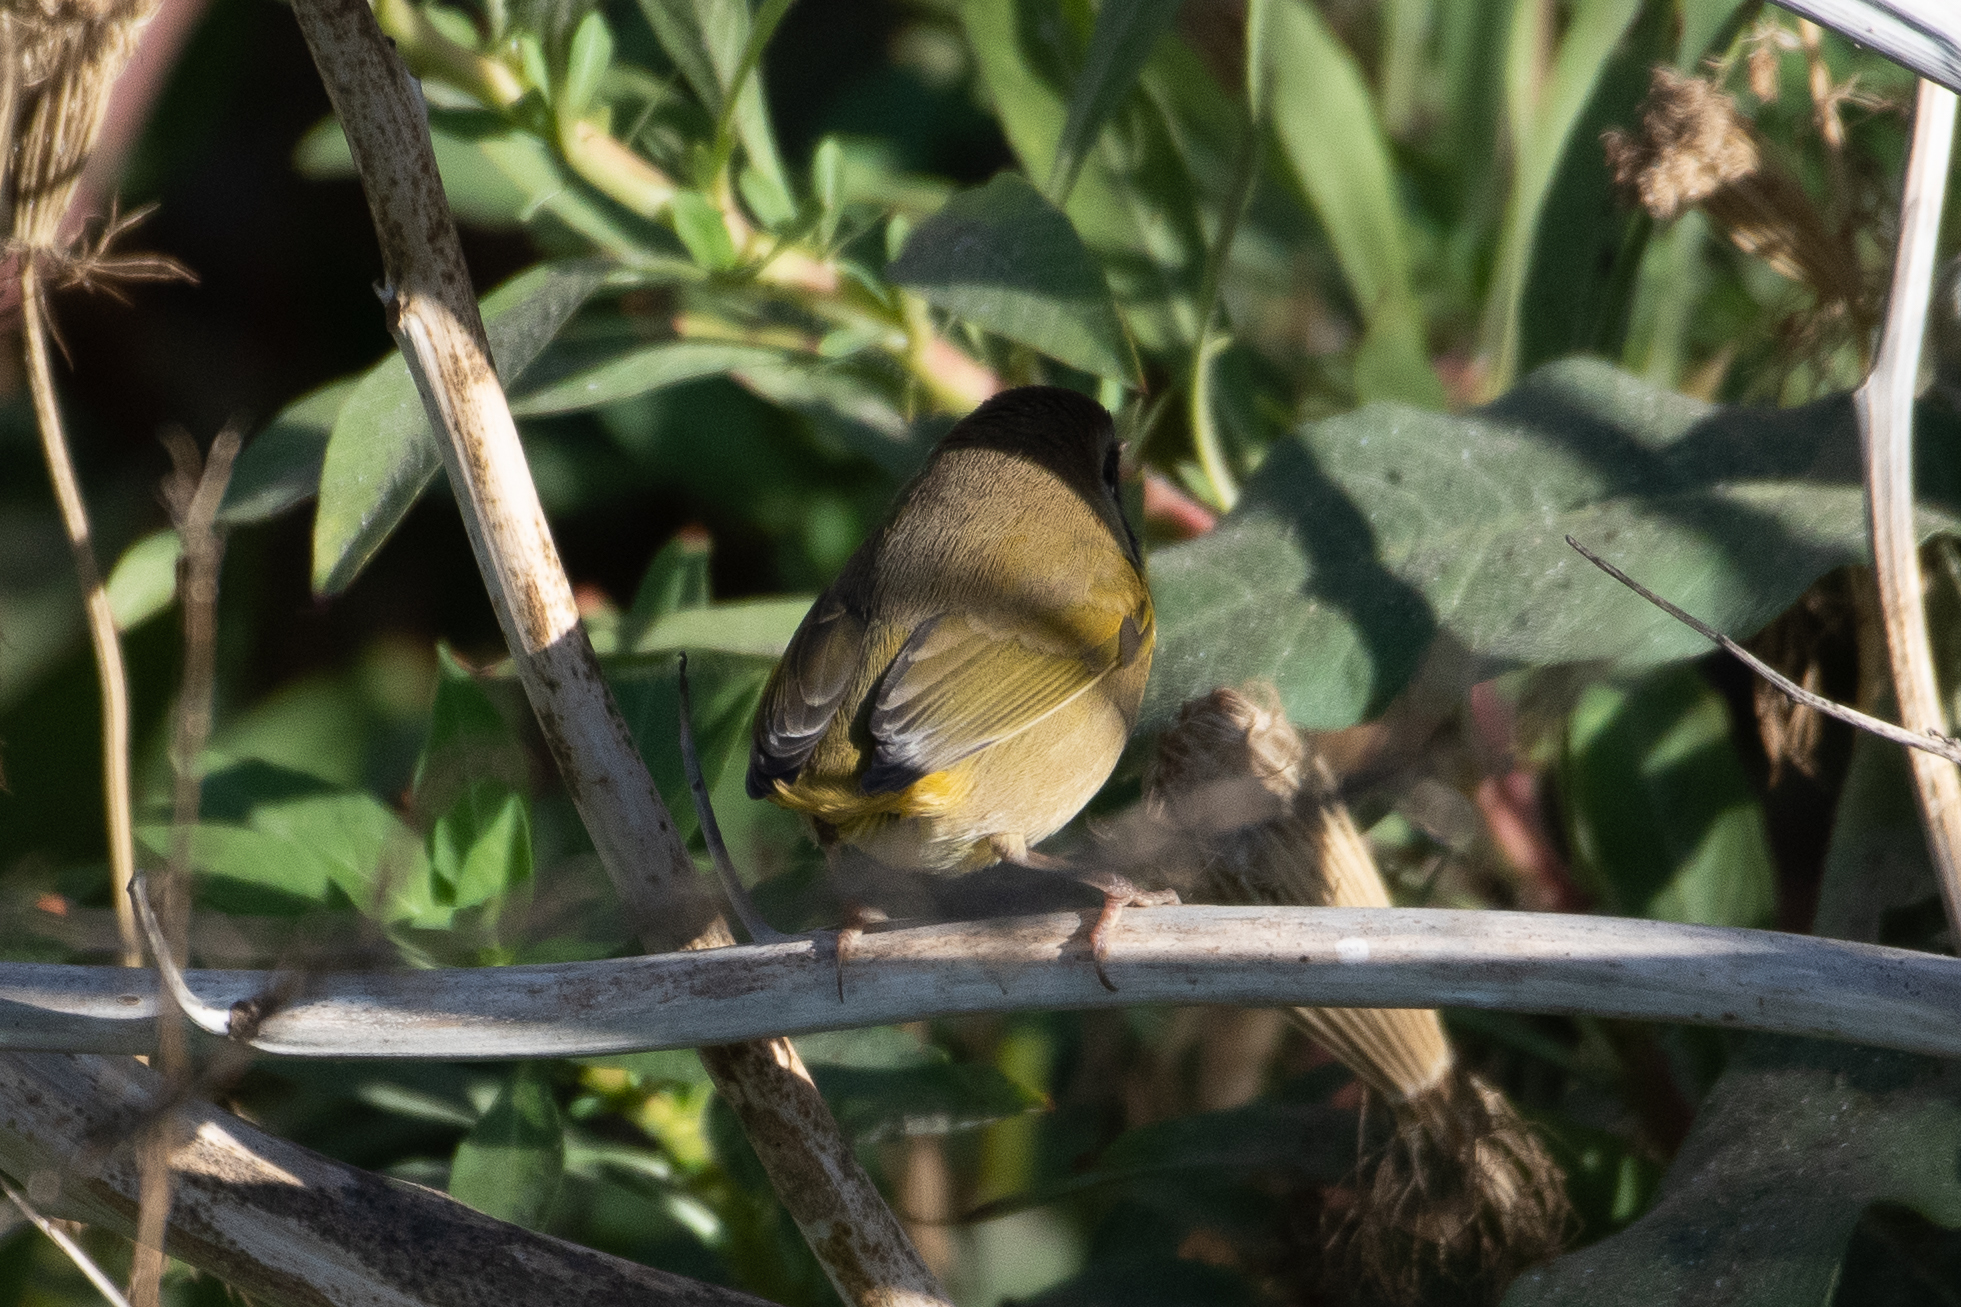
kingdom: Animalia
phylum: Chordata
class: Aves
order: Passeriformes
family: Parulidae
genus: Geothlypis
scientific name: Geothlypis trichas
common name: Common yellowthroat
